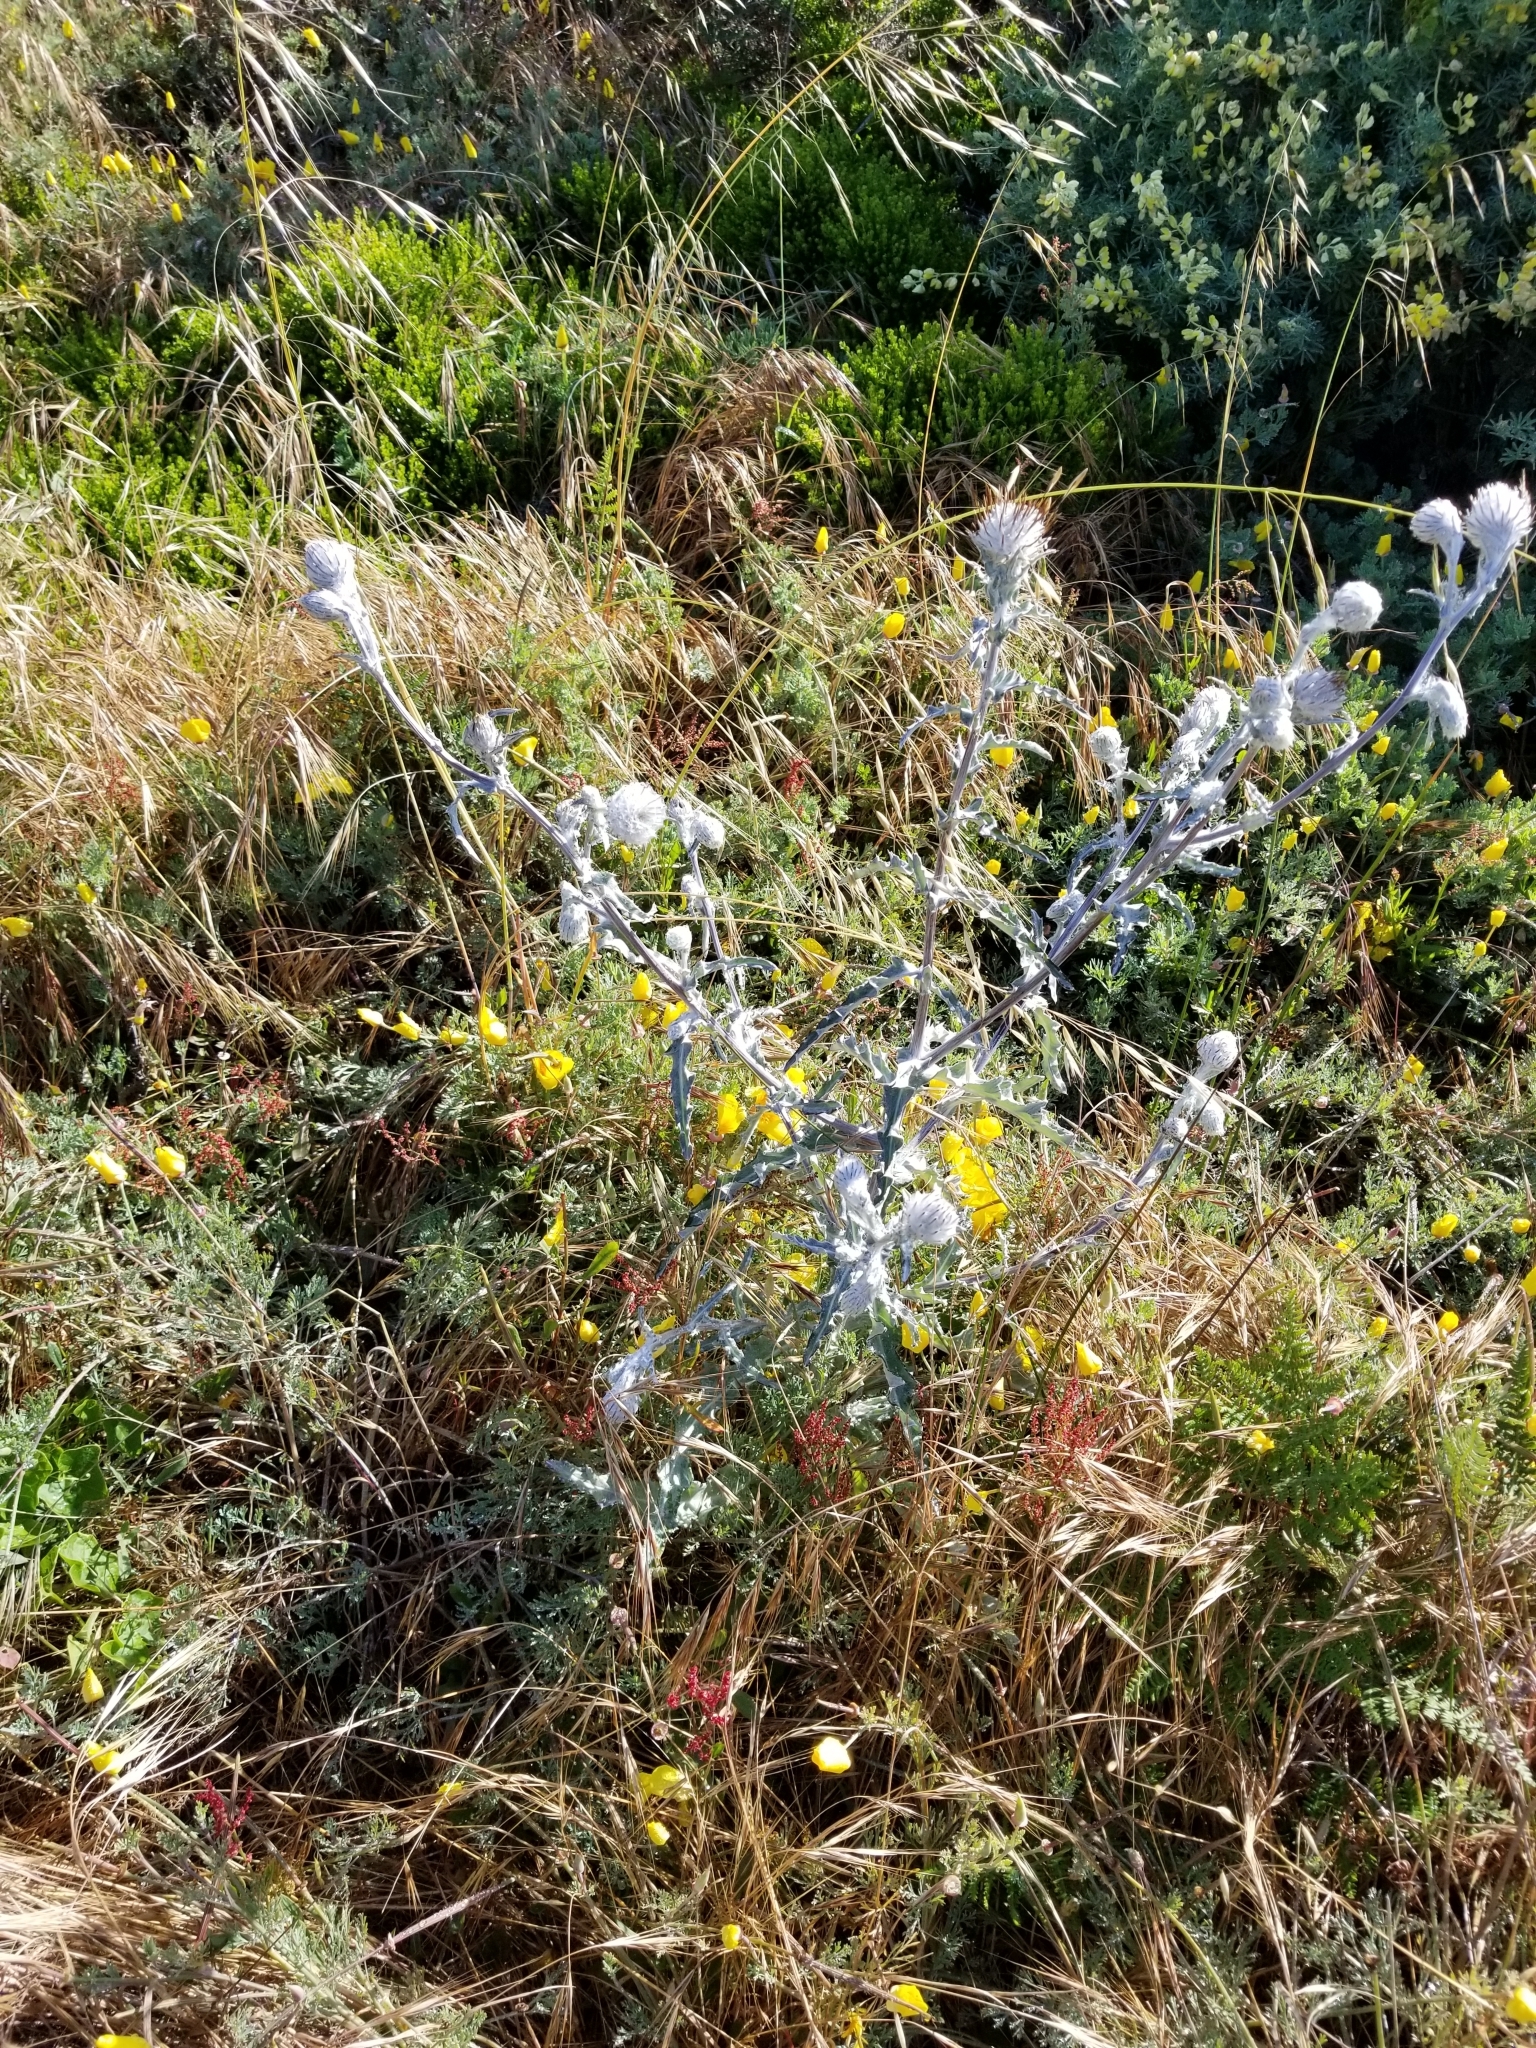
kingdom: Plantae
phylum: Tracheophyta
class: Magnoliopsida
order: Asterales
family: Asteraceae
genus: Cirsium
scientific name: Cirsium occidentale
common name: Western thistle
